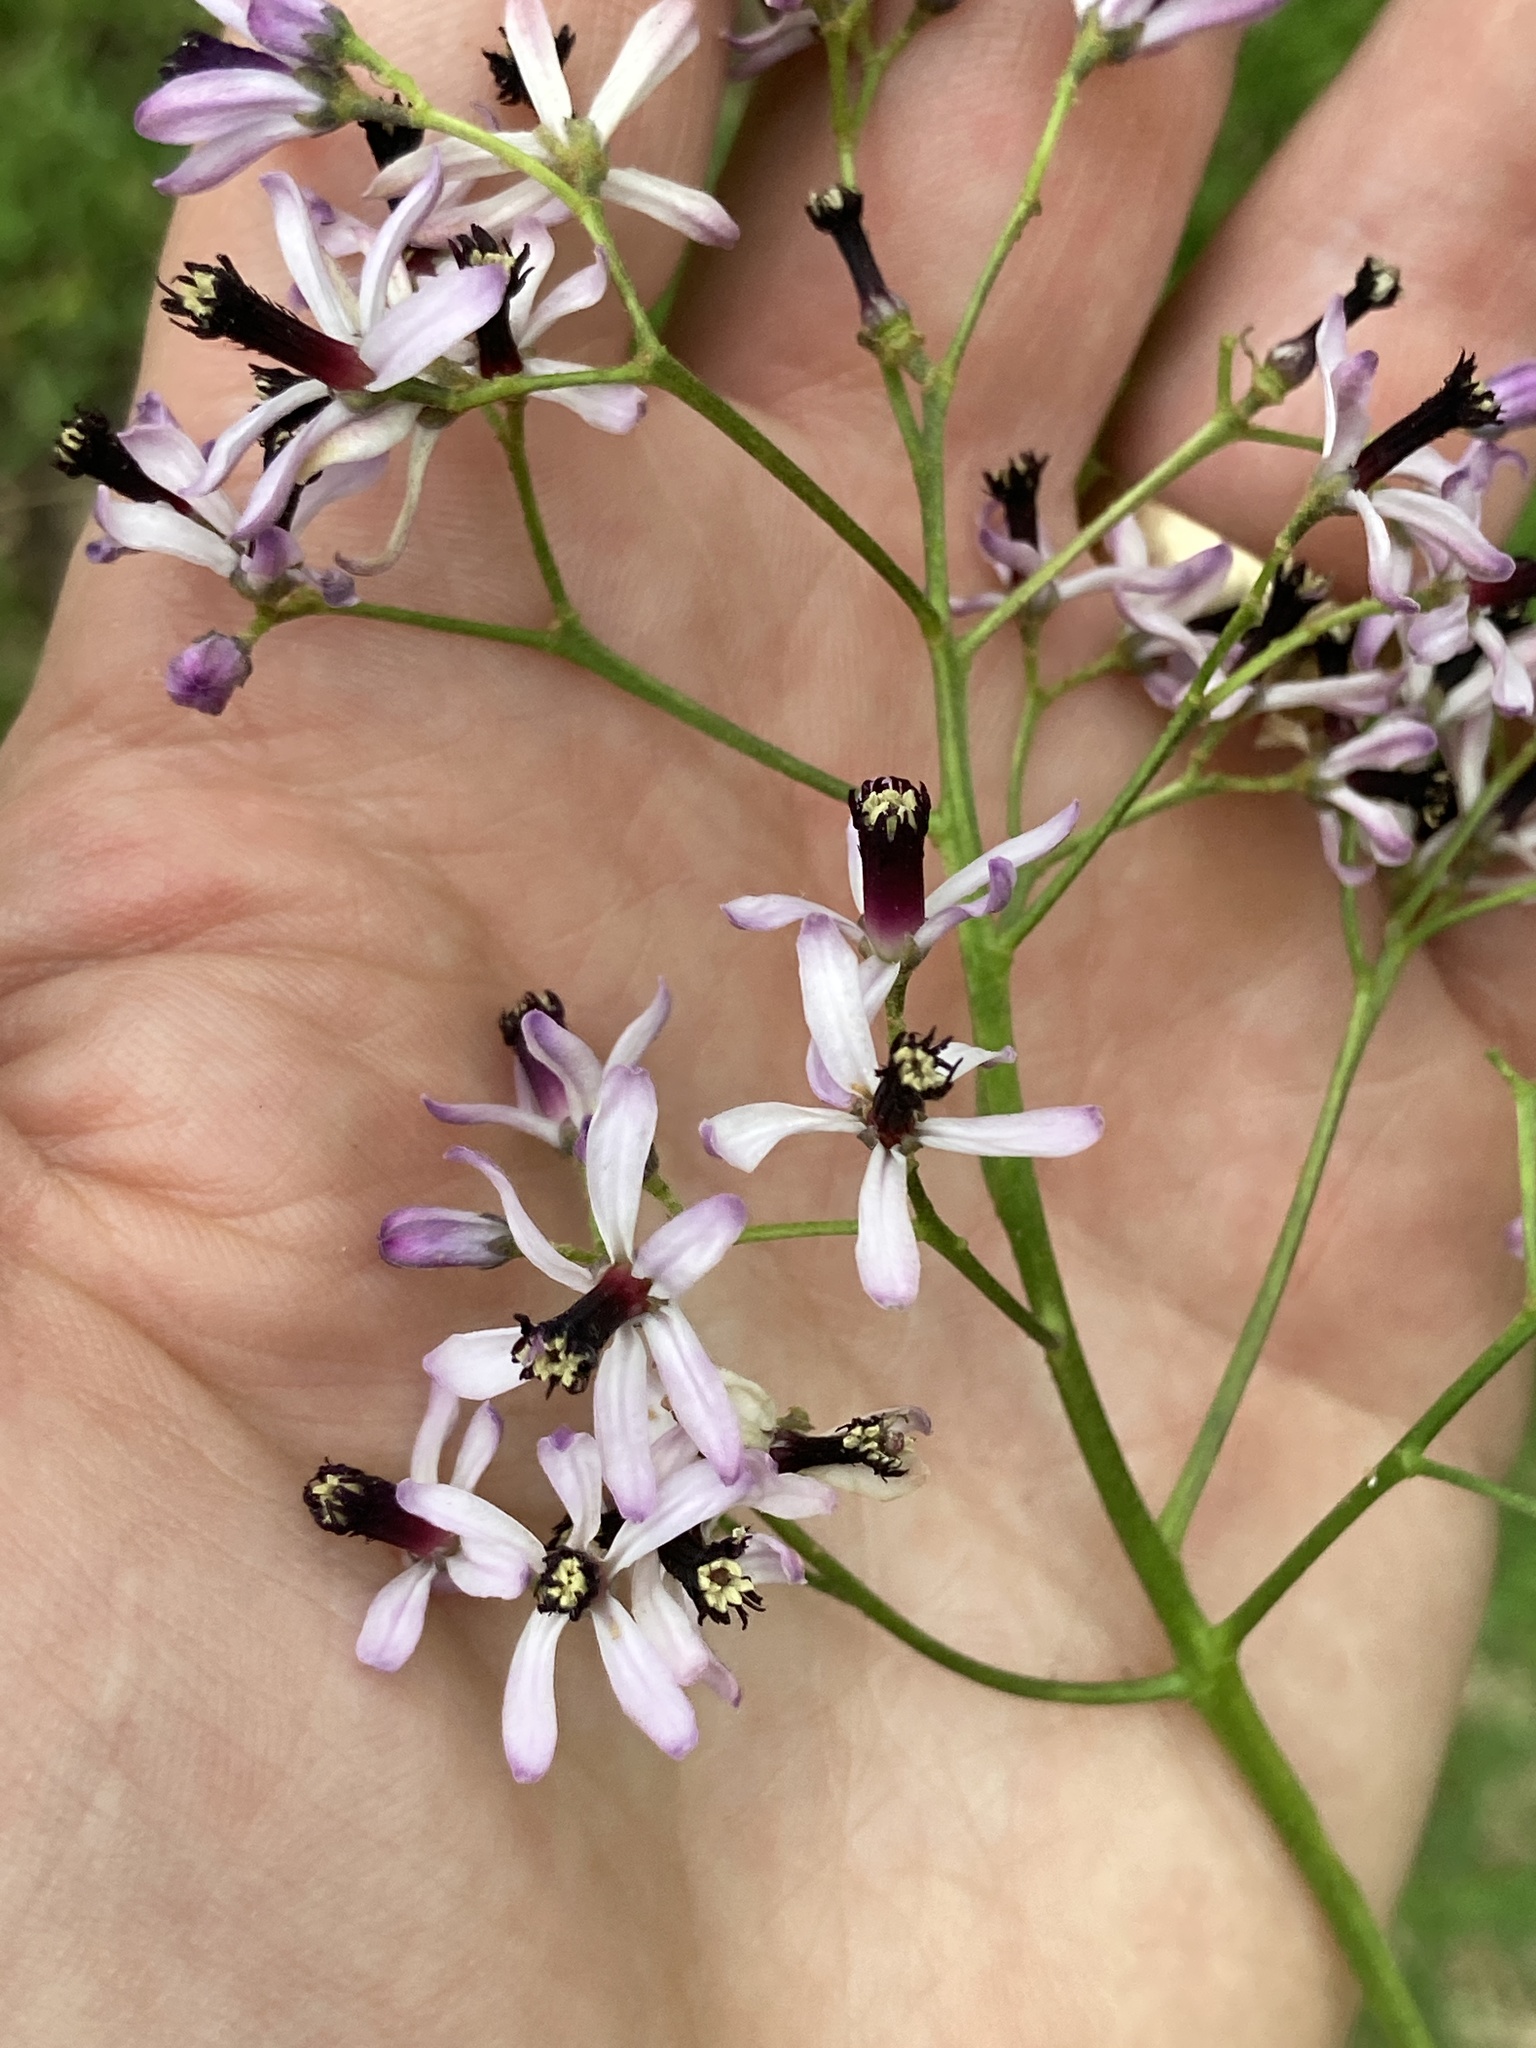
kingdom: Plantae
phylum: Tracheophyta
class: Magnoliopsida
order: Sapindales
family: Meliaceae
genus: Melia
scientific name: Melia azedarach
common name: Chinaberrytree
